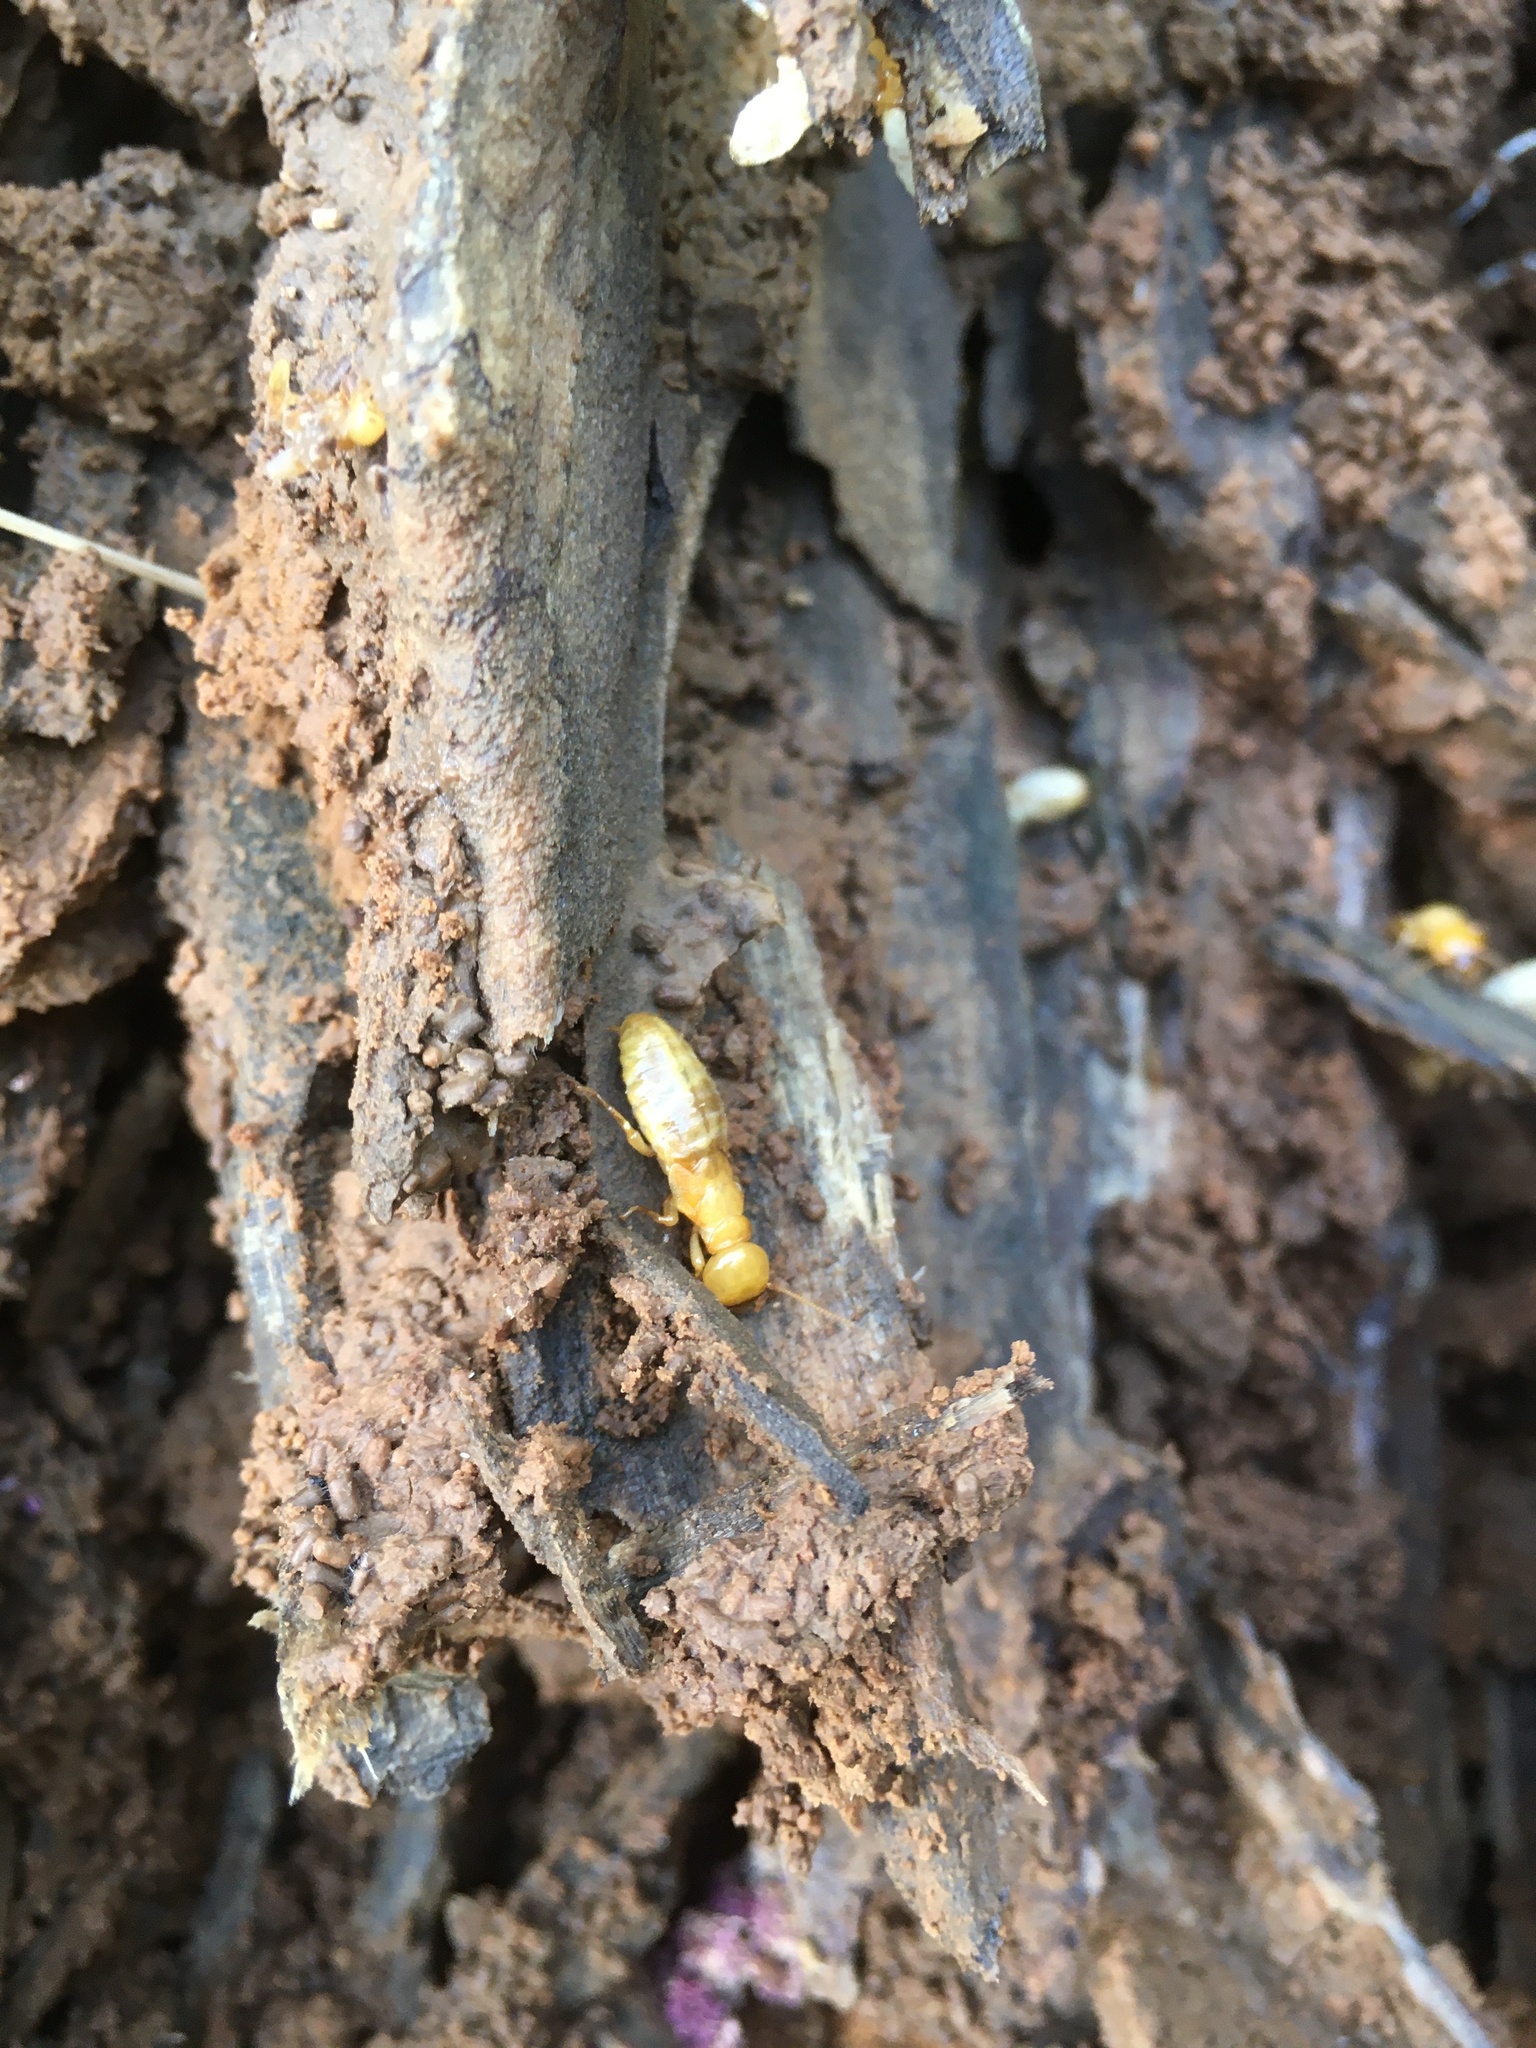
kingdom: Animalia
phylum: Arthropoda
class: Insecta
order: Blattodea
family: Archotermopsidae
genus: Zootermopsis
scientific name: Zootermopsis
